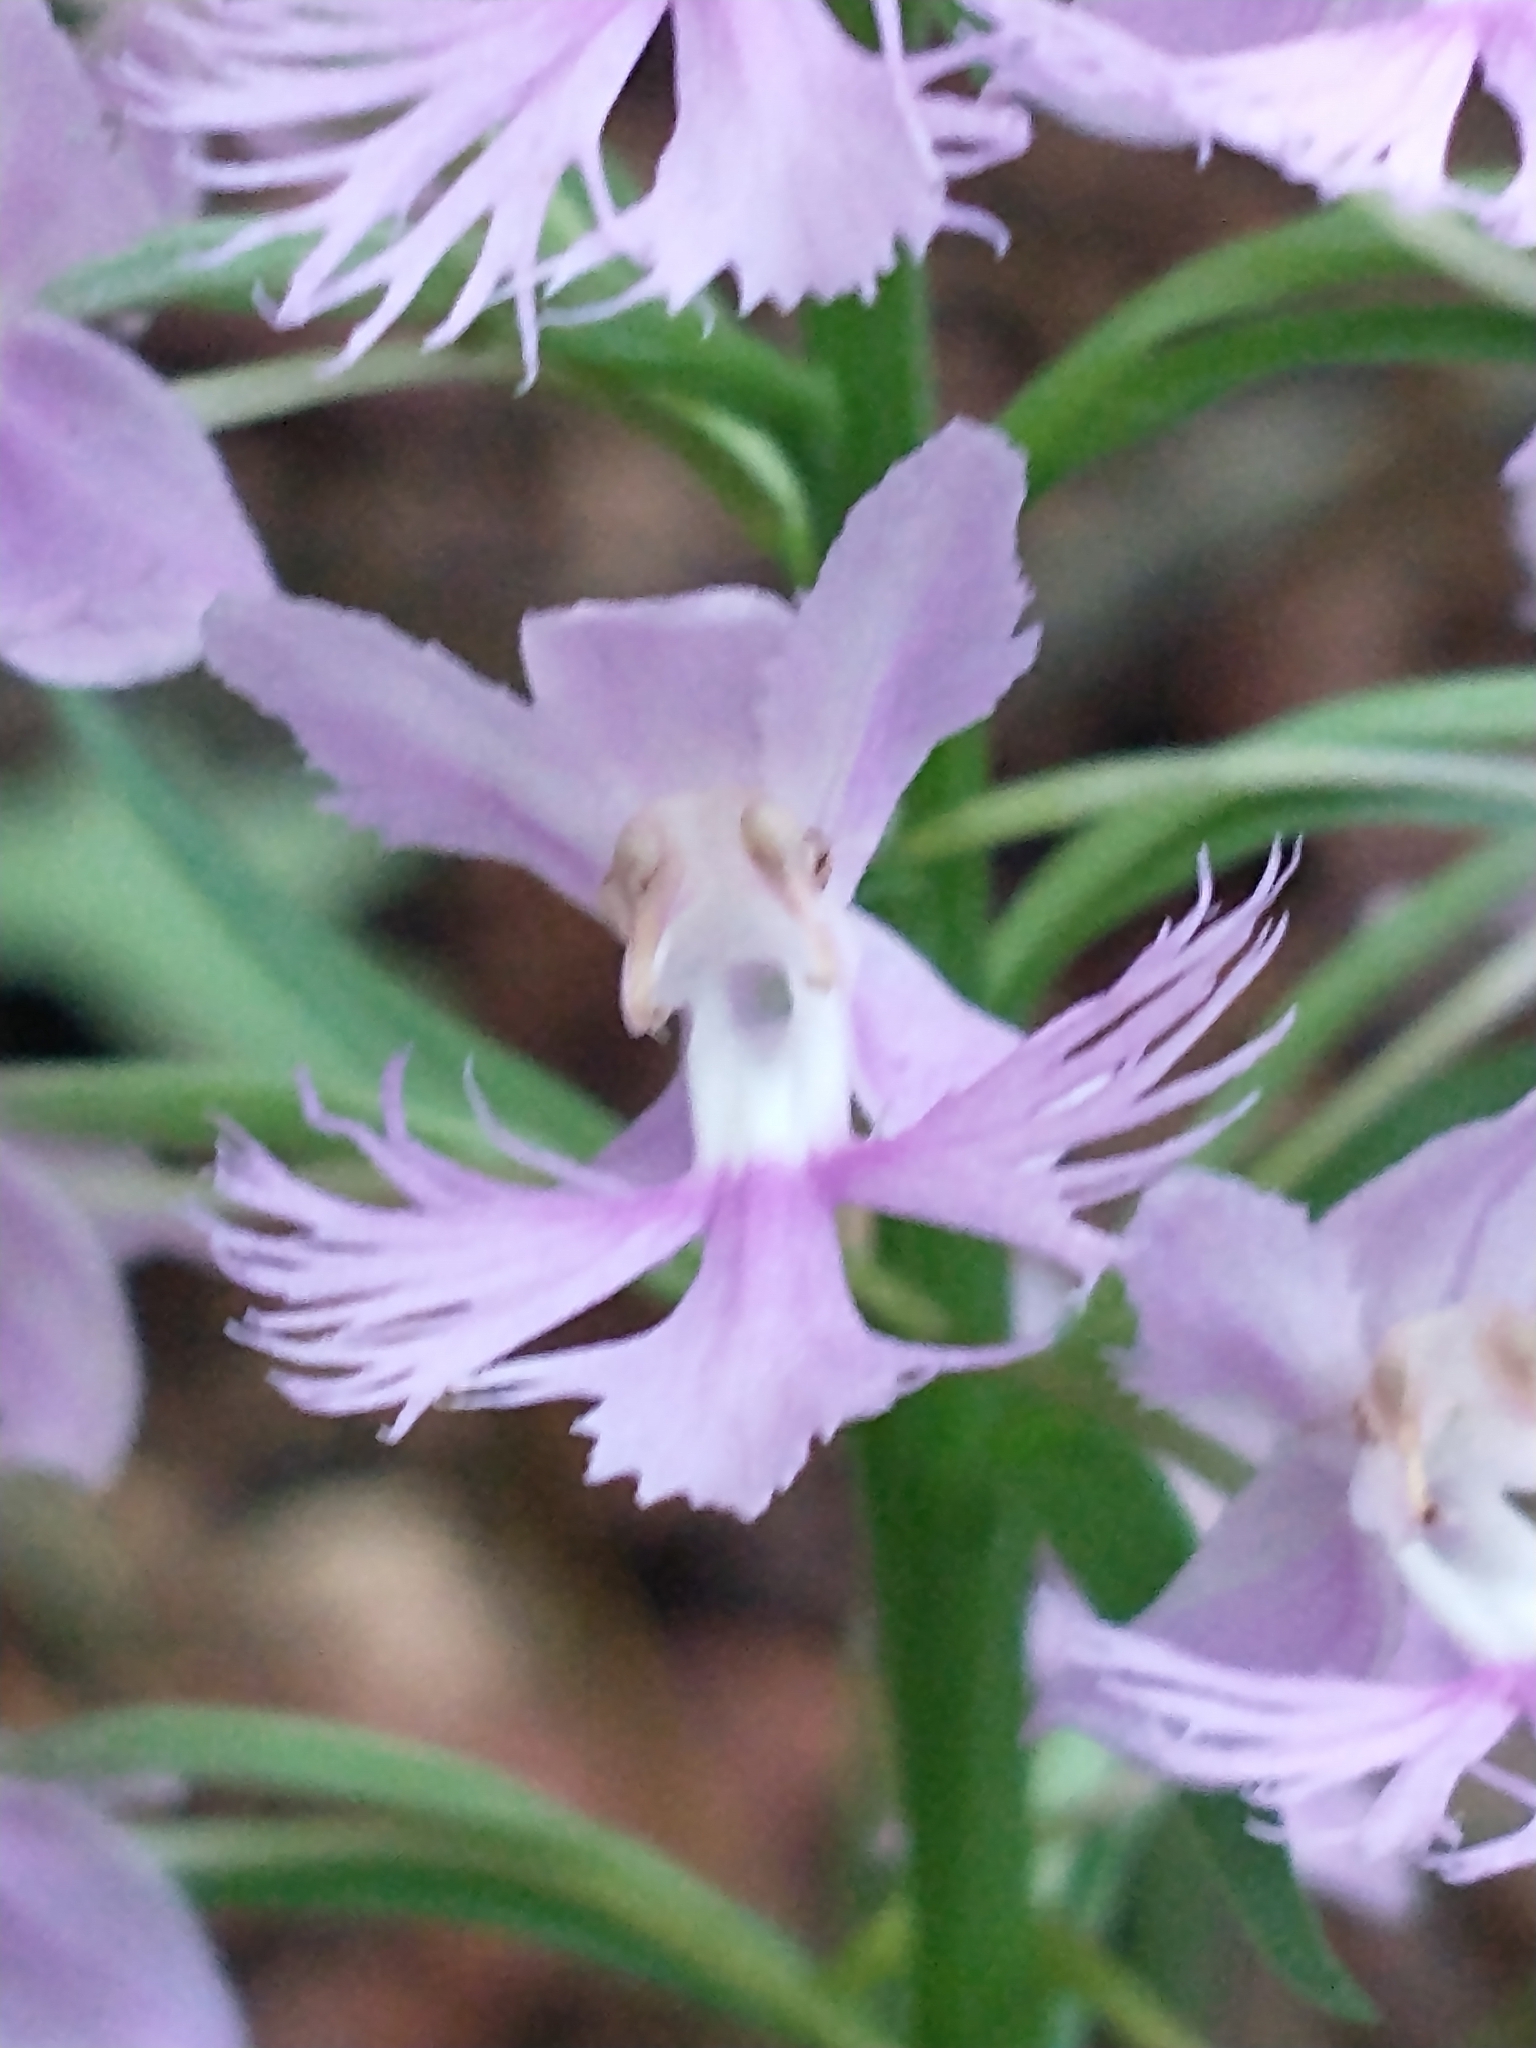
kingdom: Plantae
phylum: Tracheophyta
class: Liliopsida
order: Asparagales
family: Orchidaceae
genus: Platanthera
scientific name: Platanthera grandiflora
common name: Greater purple fringed orchid
